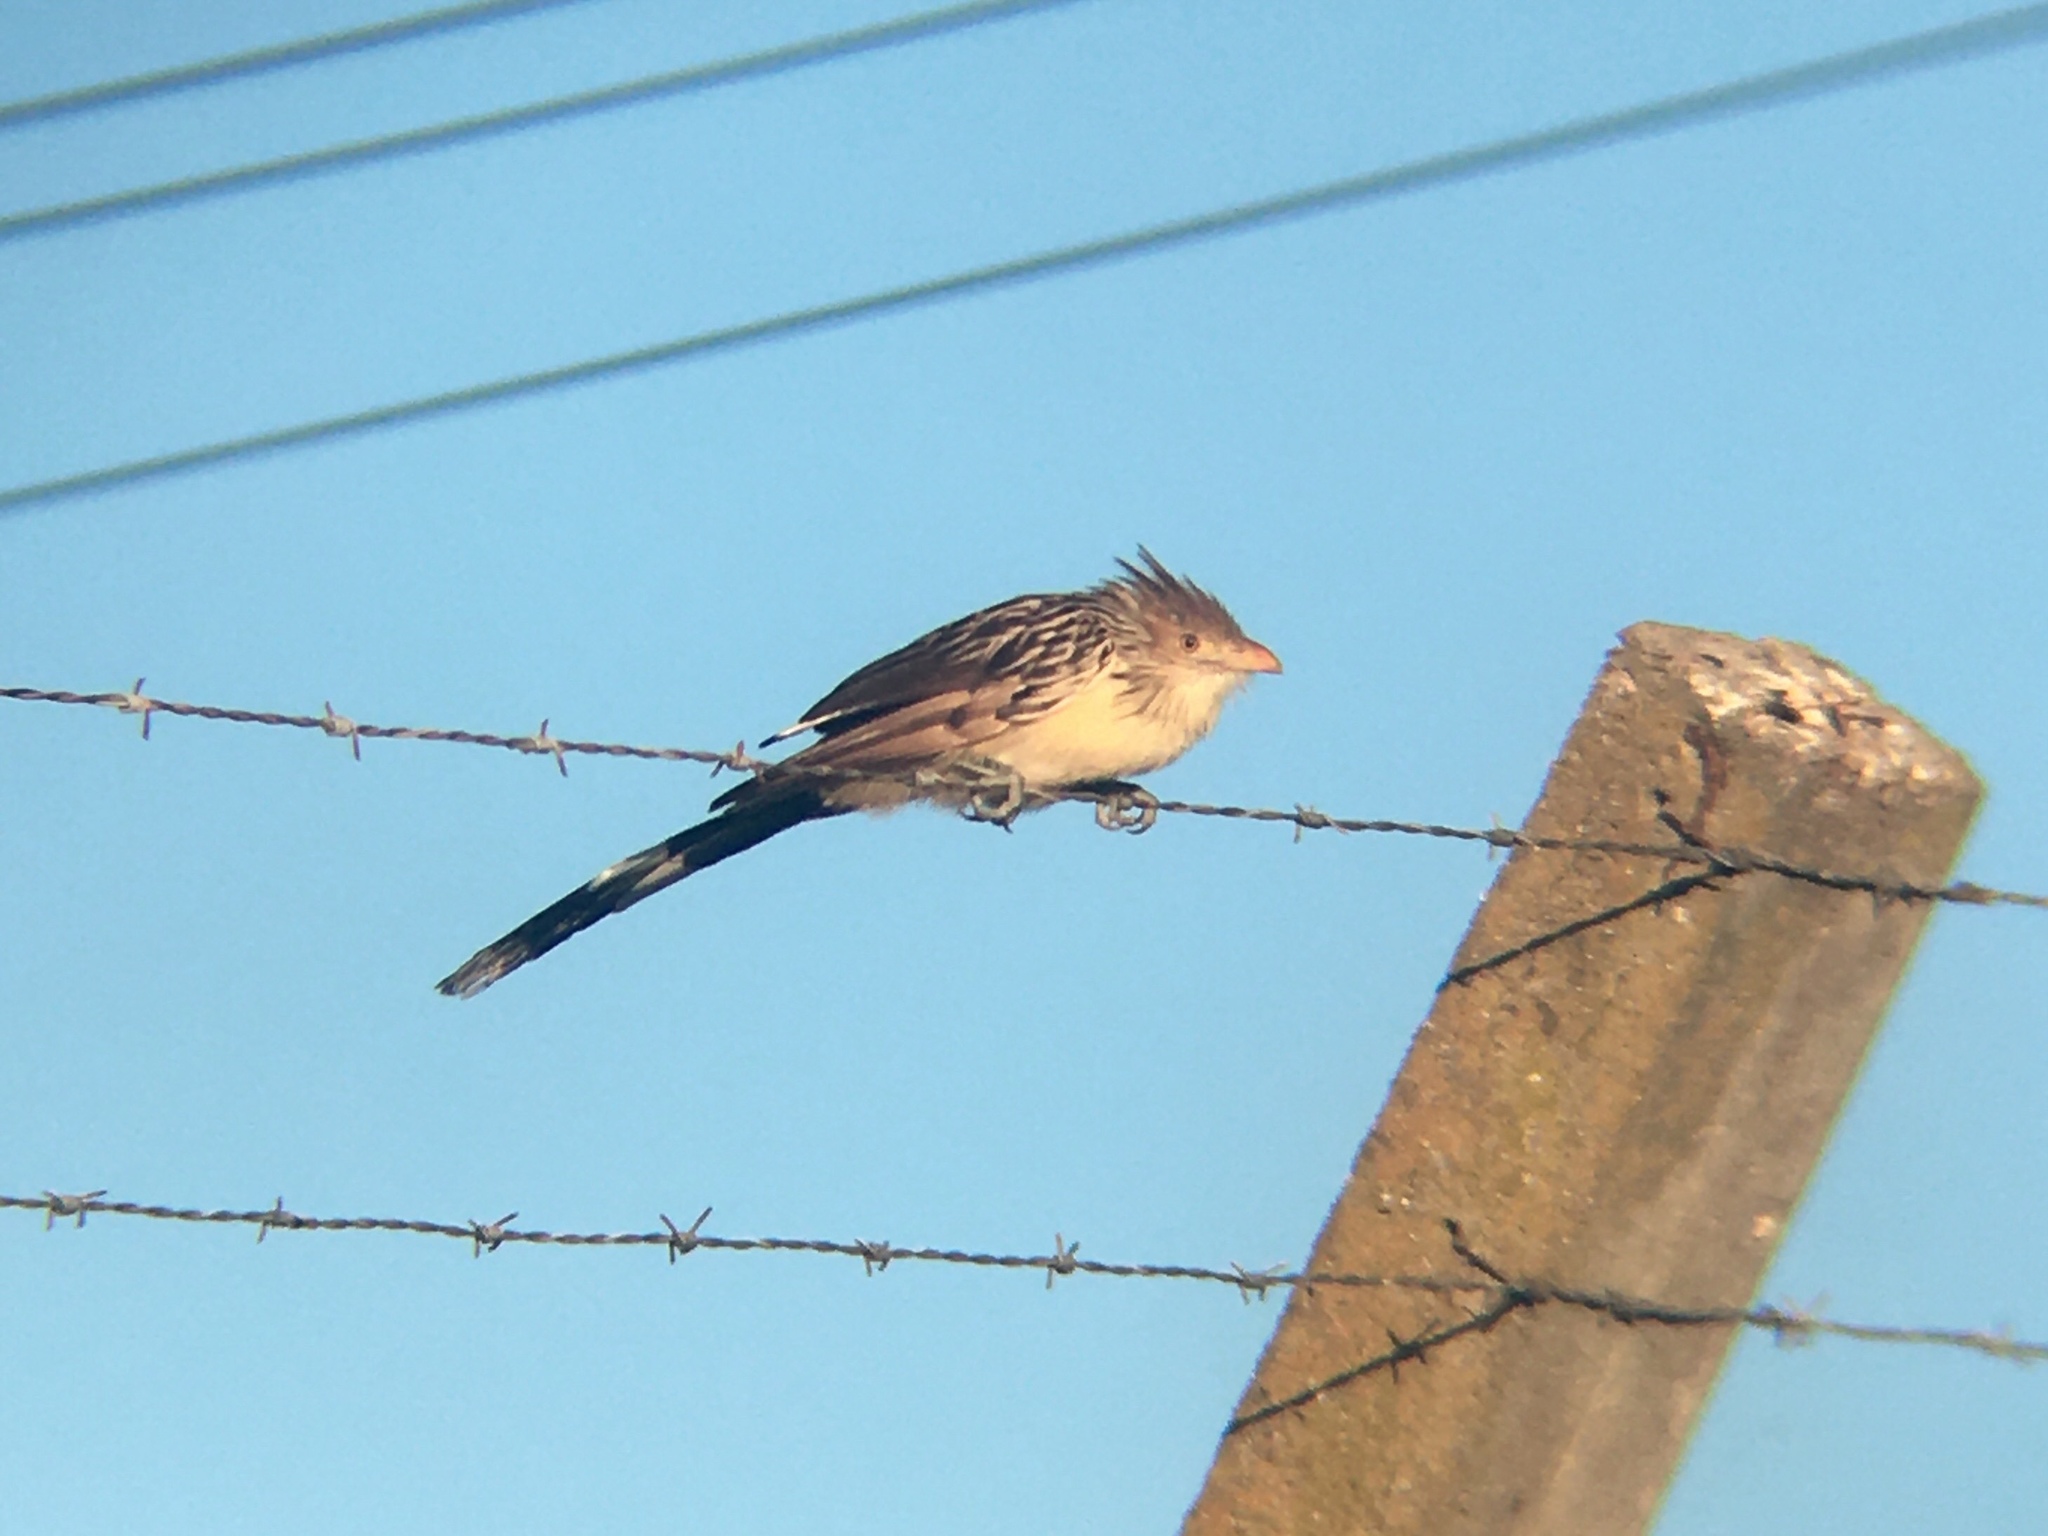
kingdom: Animalia
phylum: Chordata
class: Aves
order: Cuculiformes
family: Cuculidae
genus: Guira
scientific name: Guira guira
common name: Guira cuckoo
